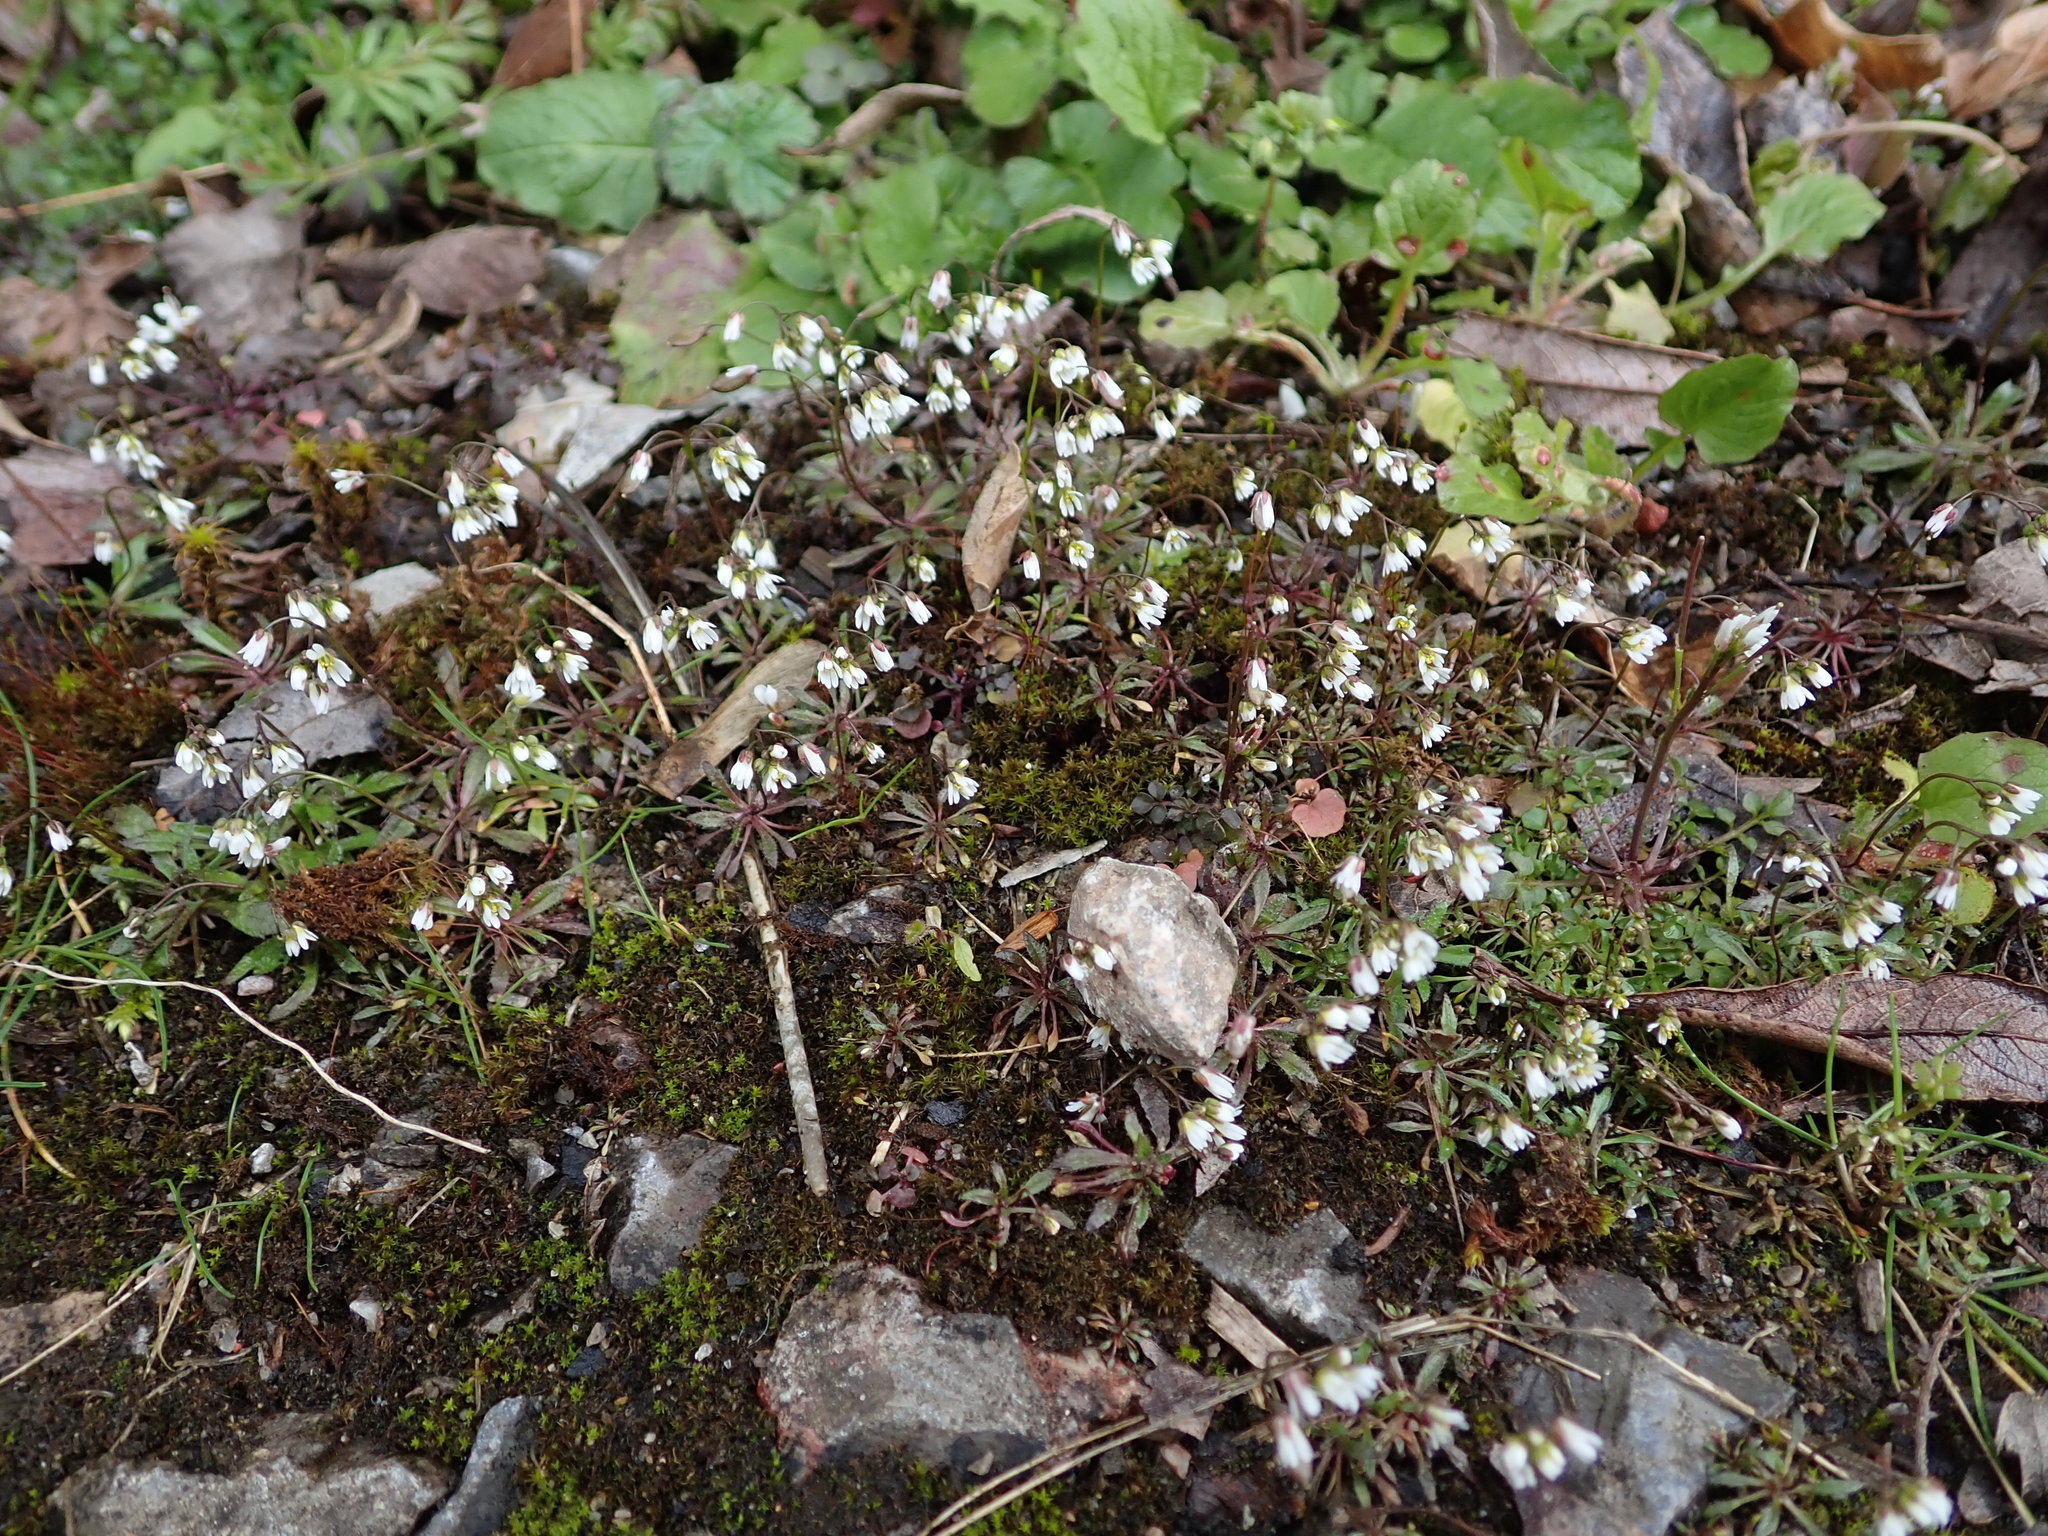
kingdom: Plantae
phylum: Tracheophyta
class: Magnoliopsida
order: Brassicales
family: Brassicaceae
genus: Draba
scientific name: Draba verna
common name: Spring draba
